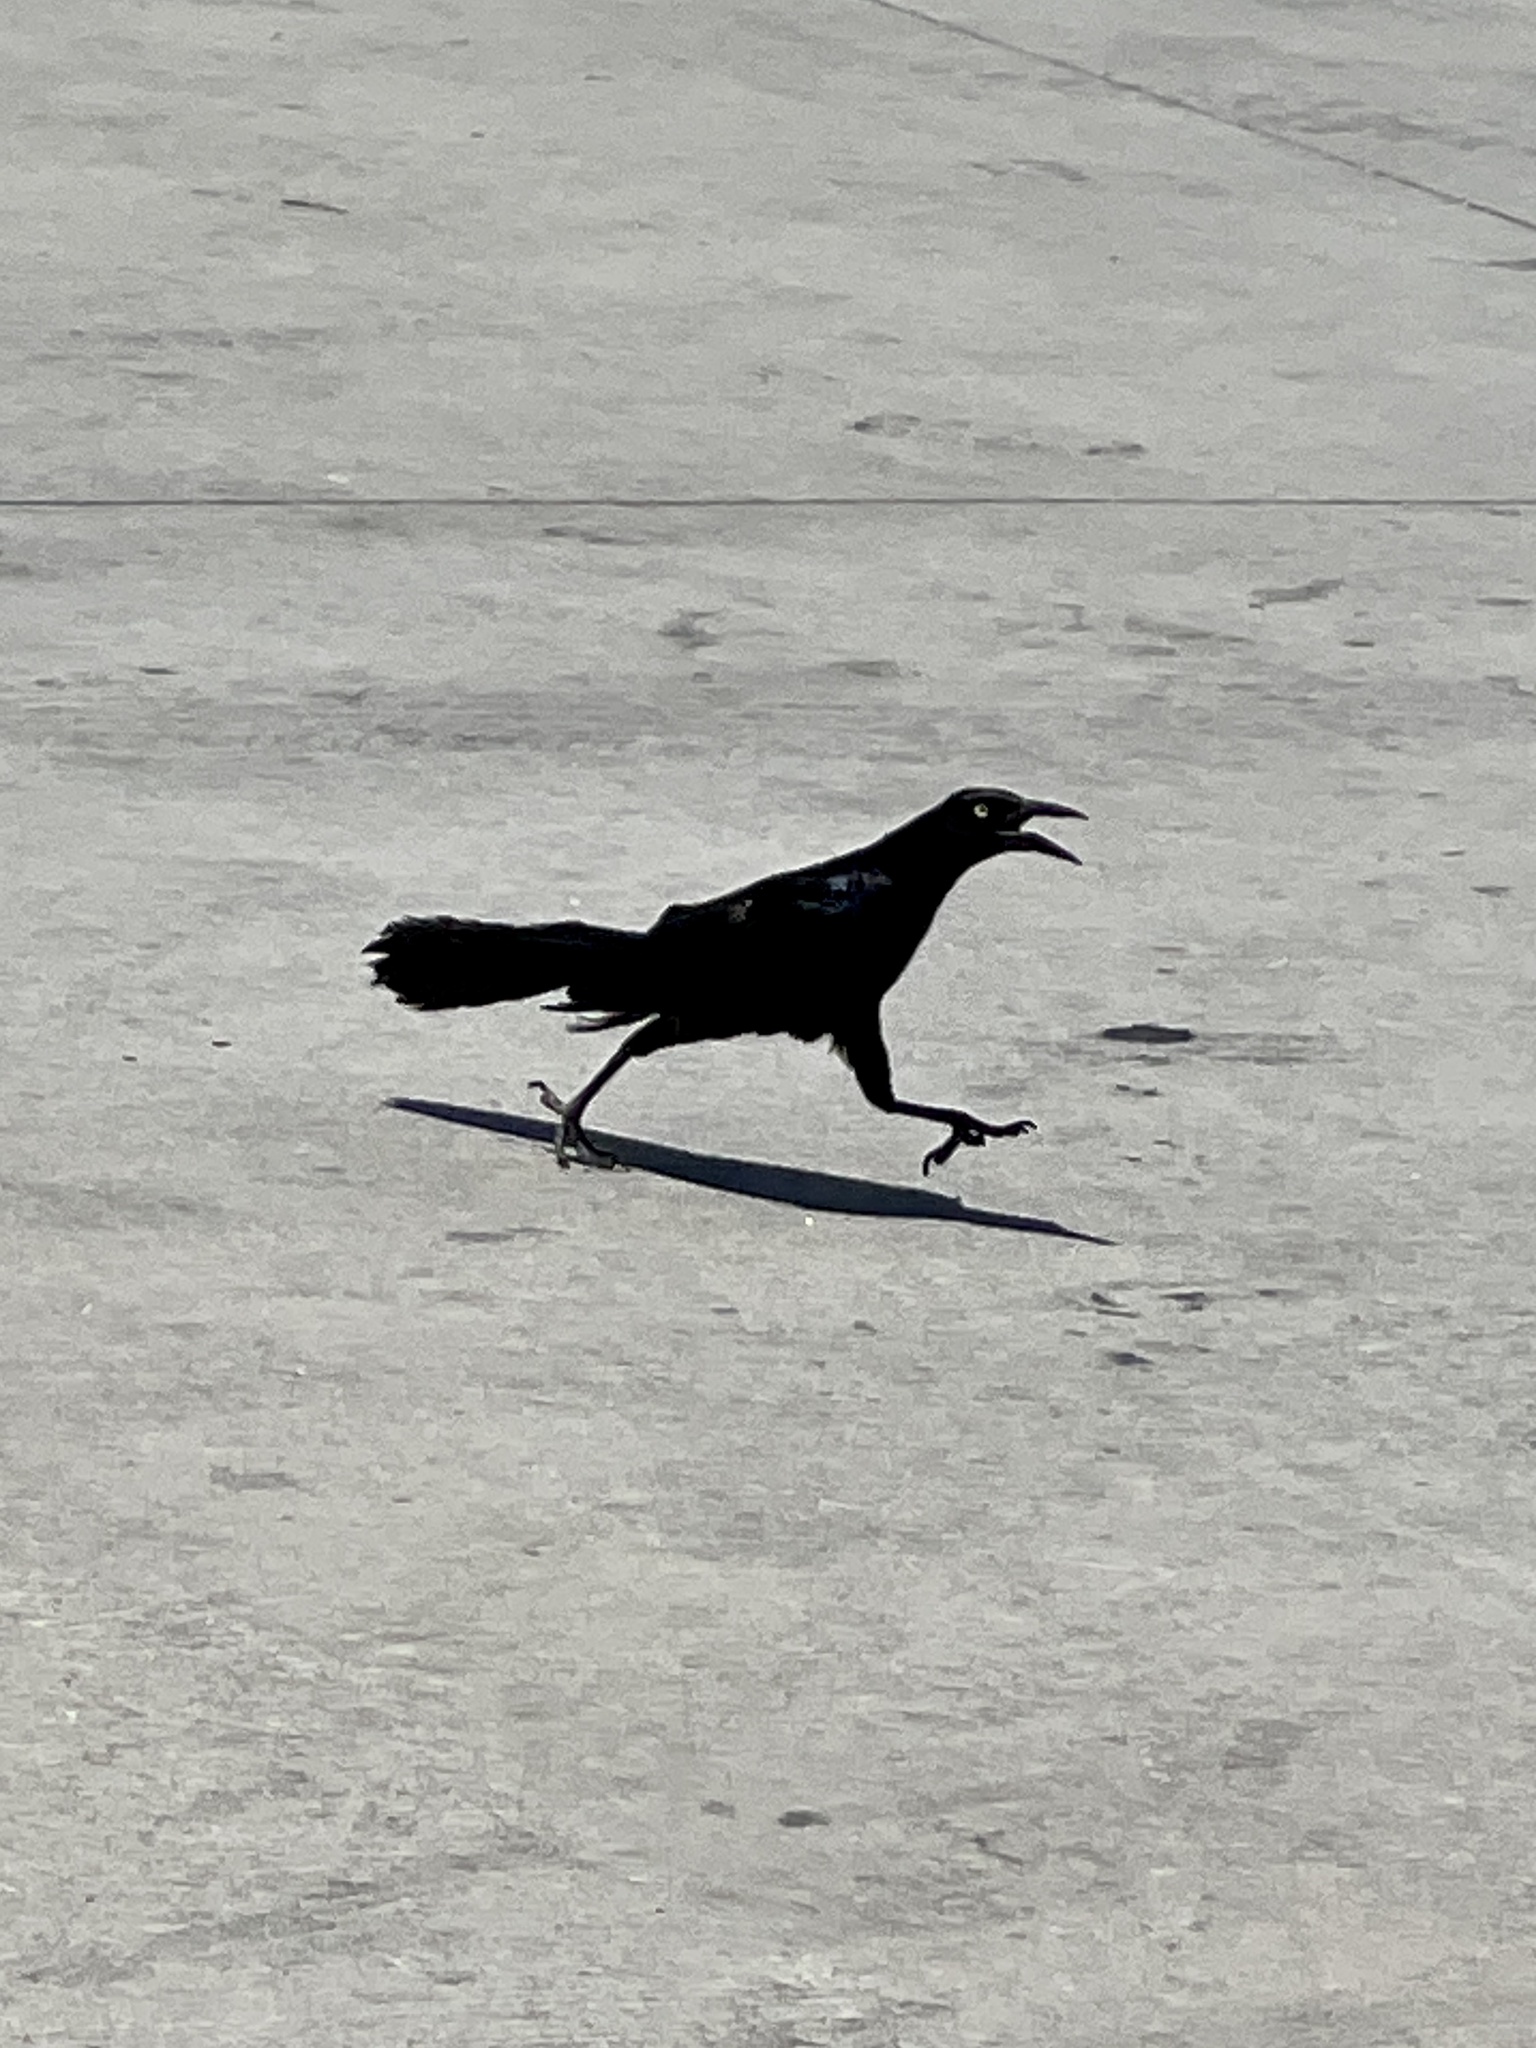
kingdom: Animalia
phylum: Chordata
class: Aves
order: Passeriformes
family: Icteridae
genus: Quiscalus
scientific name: Quiscalus mexicanus
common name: Great-tailed grackle
